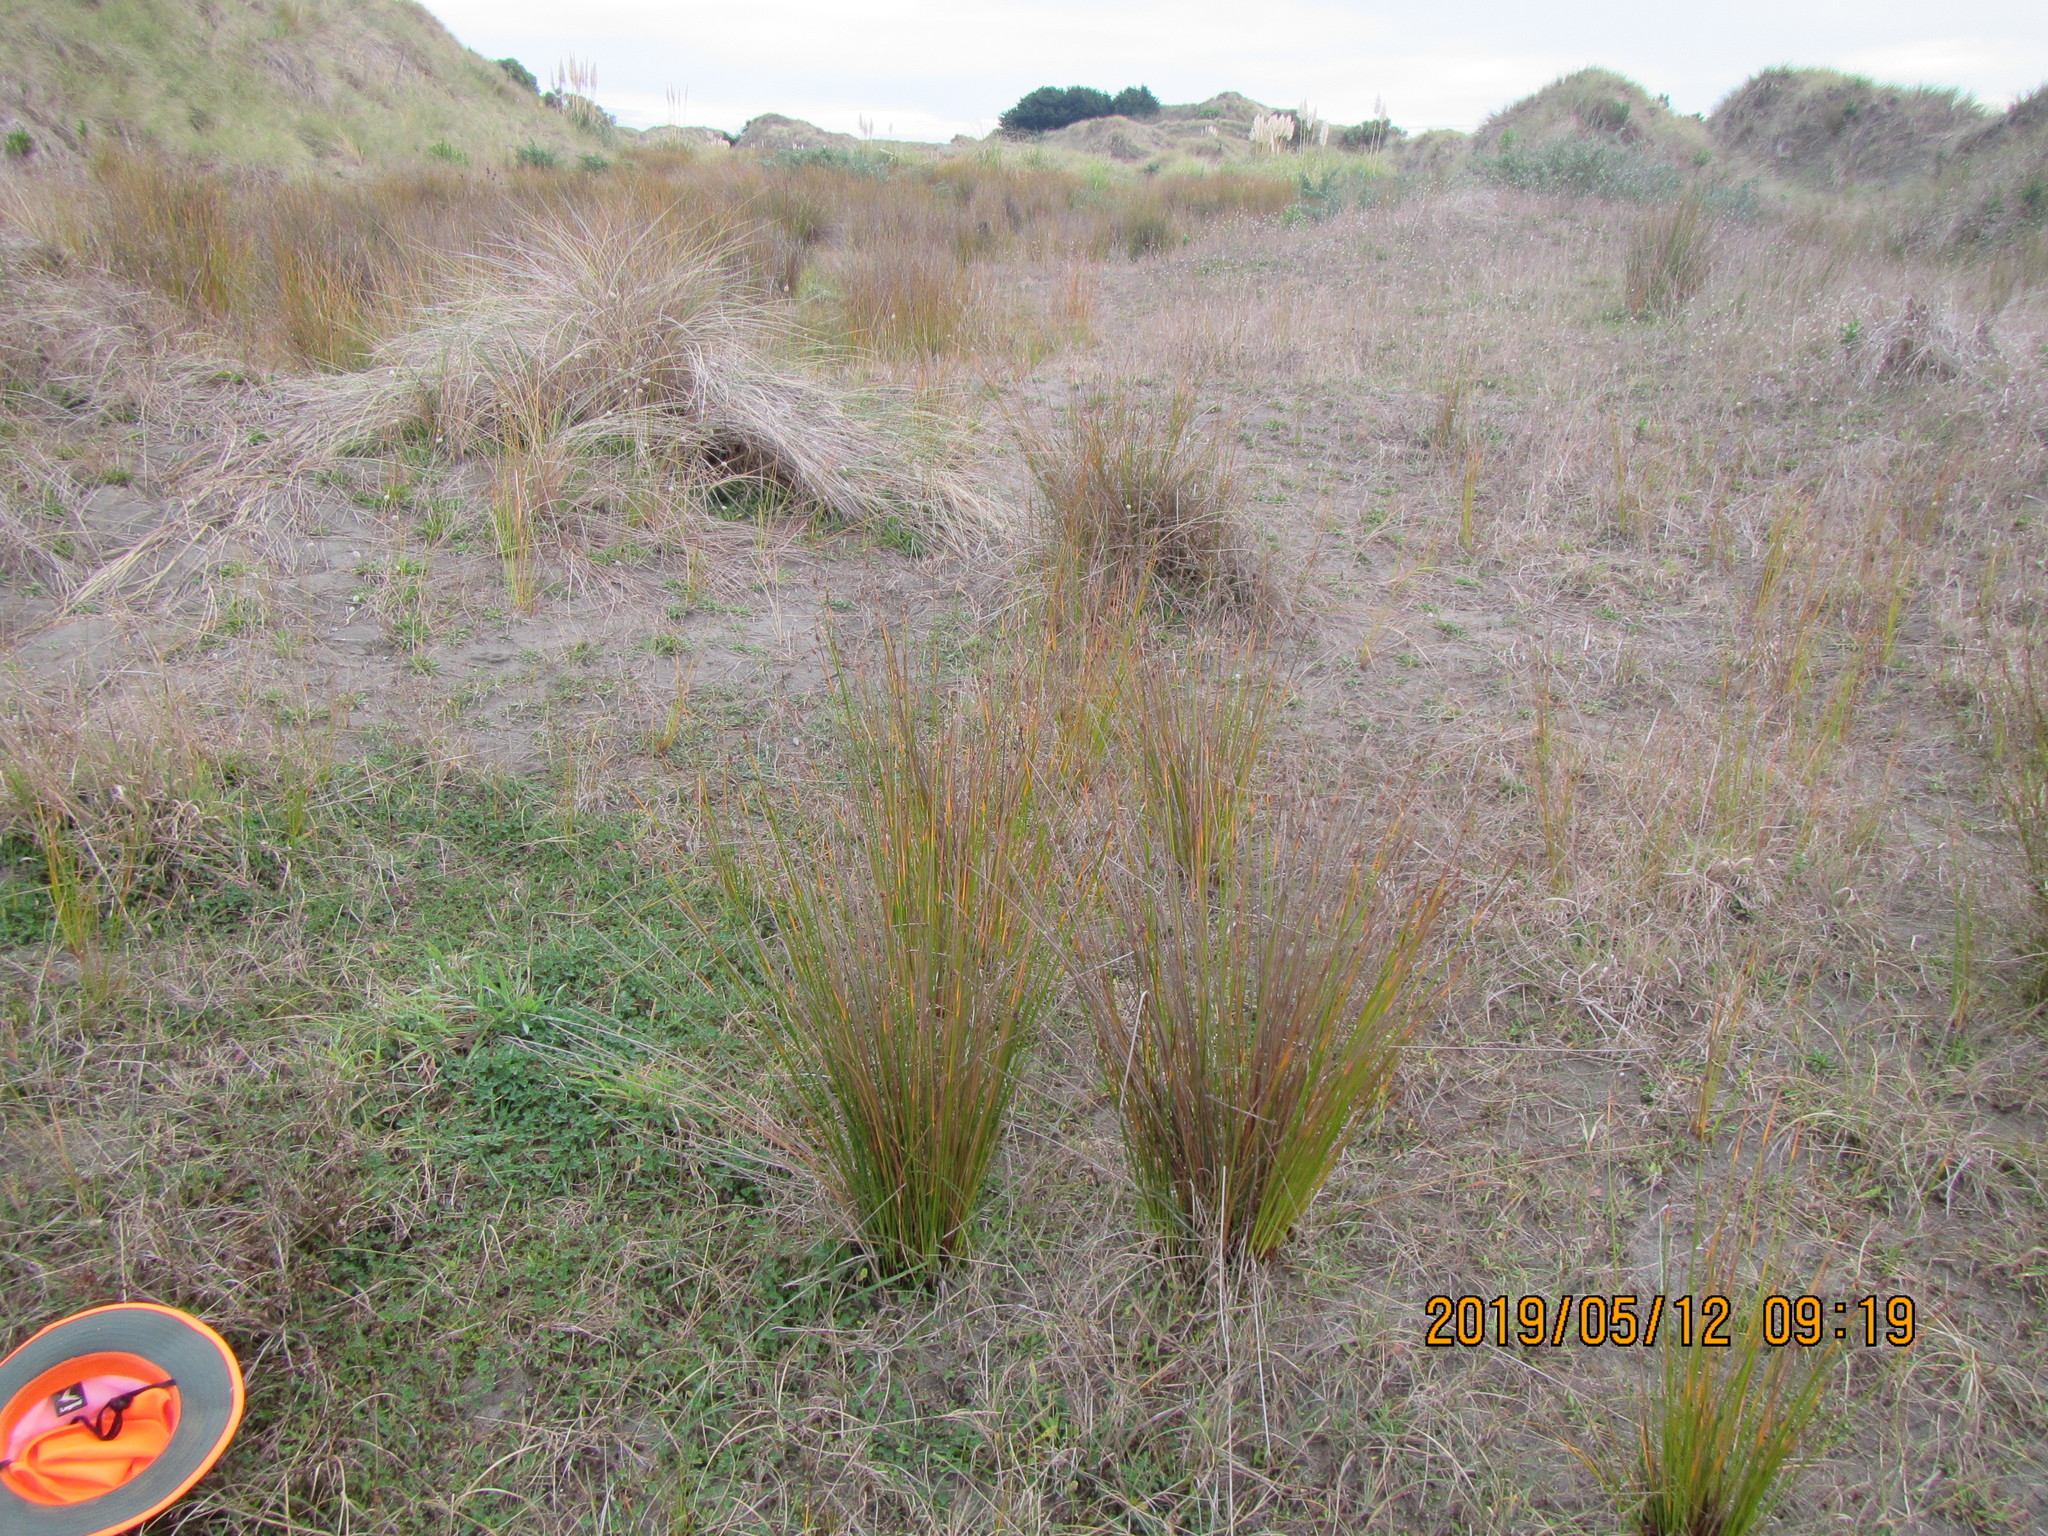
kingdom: Plantae
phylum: Tracheophyta
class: Liliopsida
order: Poales
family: Cyperaceae
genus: Ficinia
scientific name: Ficinia nodosa
